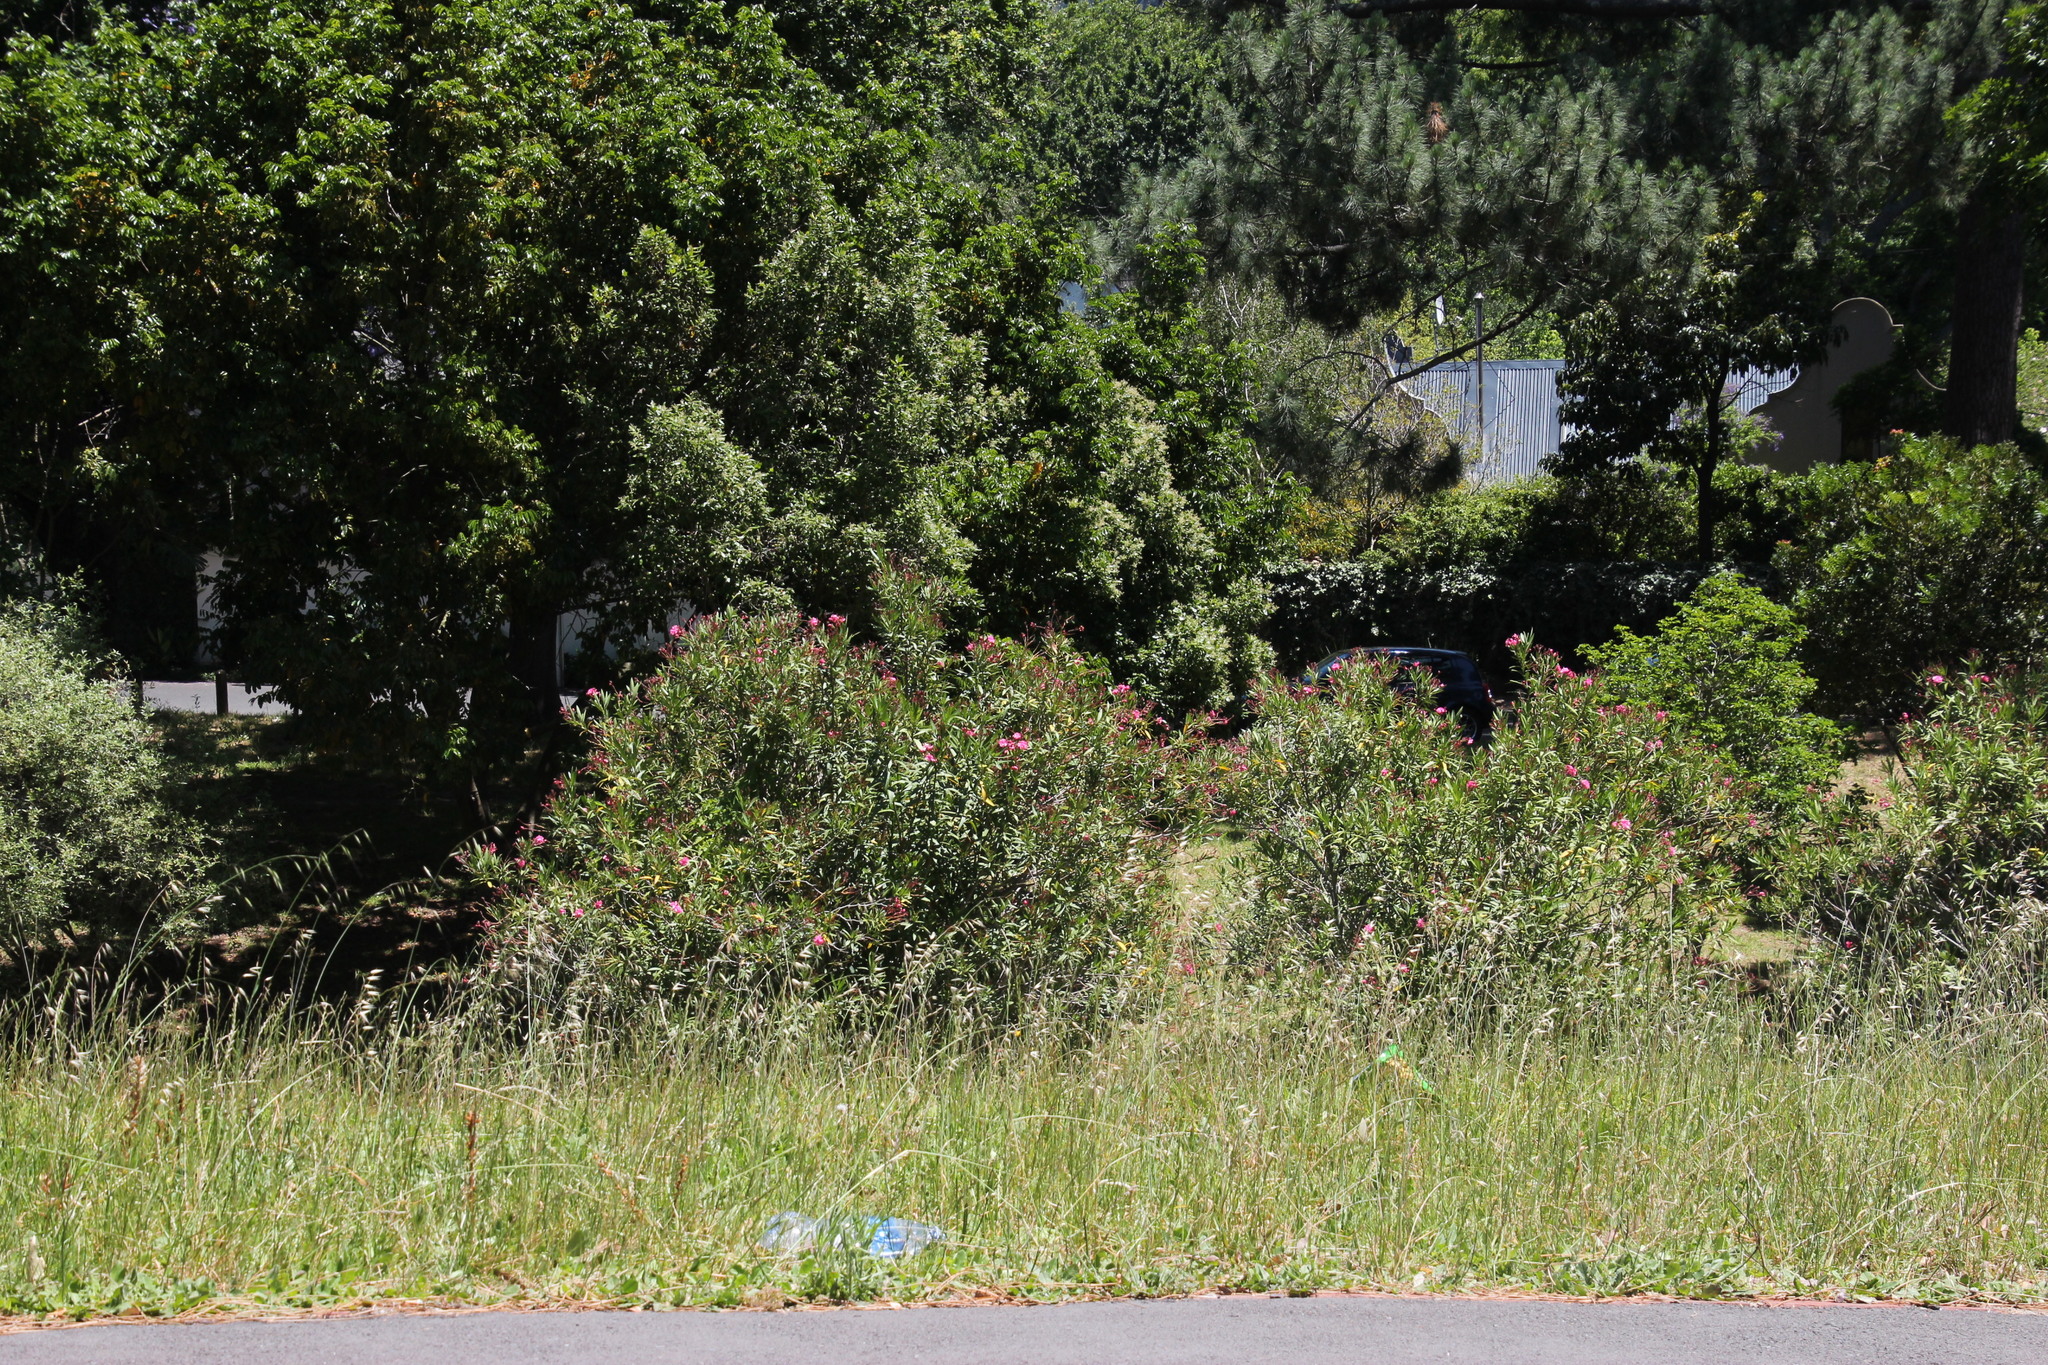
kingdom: Plantae
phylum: Tracheophyta
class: Magnoliopsida
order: Gentianales
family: Apocynaceae
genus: Nerium
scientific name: Nerium oleander
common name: Oleander
